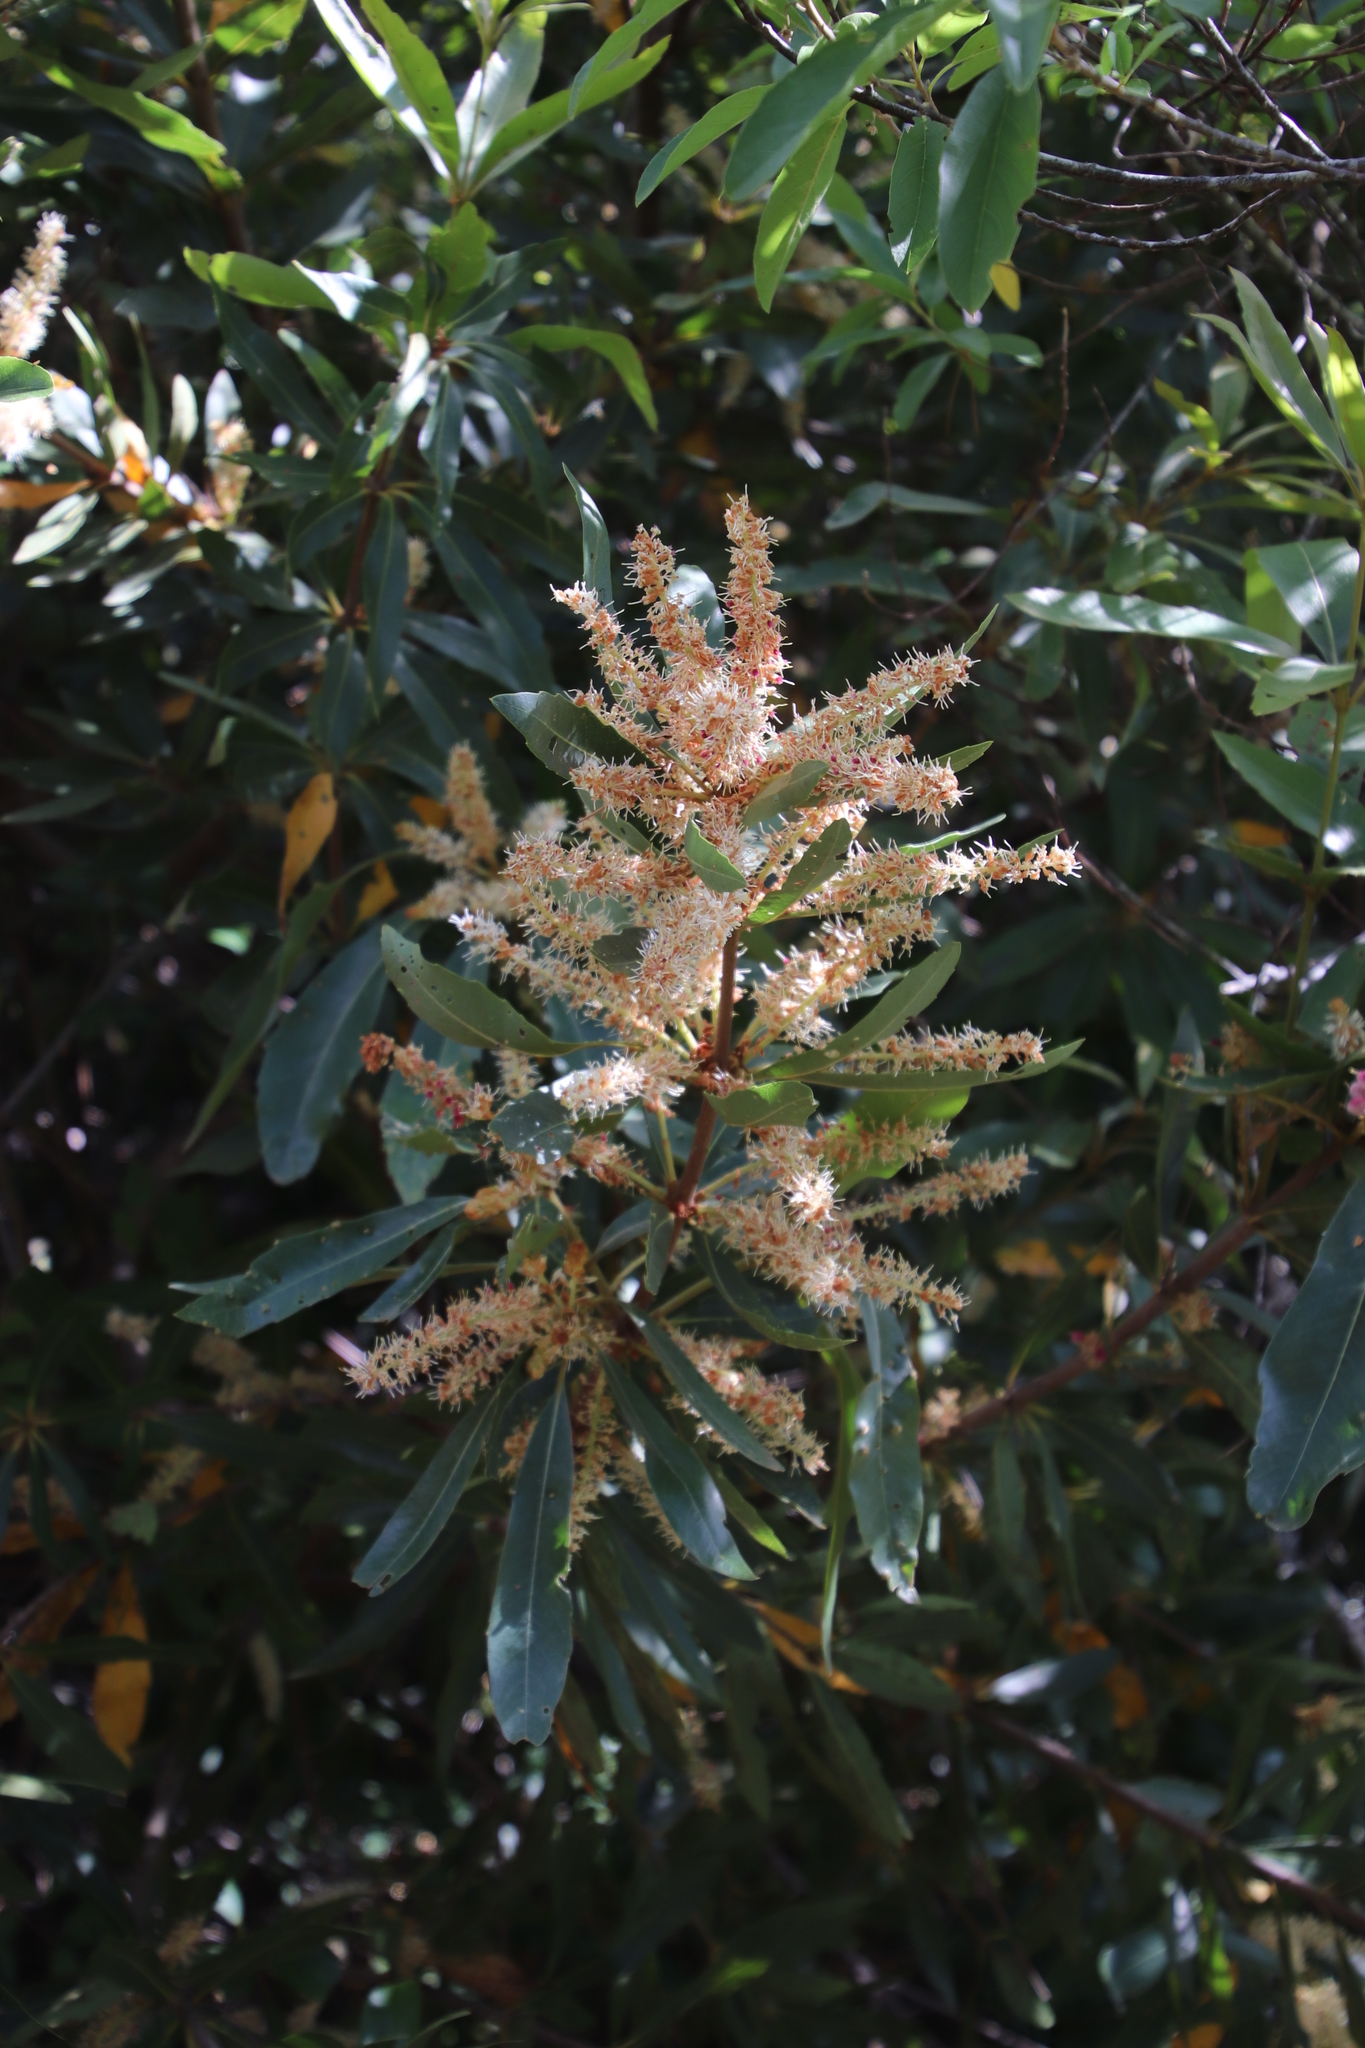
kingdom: Plantae
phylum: Tracheophyta
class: Magnoliopsida
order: Proteales
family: Proteaceae
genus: Brabejum
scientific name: Brabejum stellatifolium
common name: Wild almond
